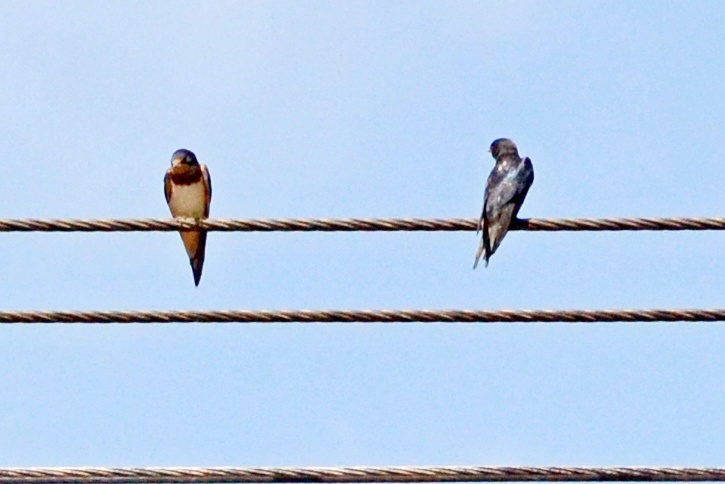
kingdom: Animalia
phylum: Chordata
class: Aves
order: Passeriformes
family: Hirundinidae
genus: Hirundo
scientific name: Hirundo rustica
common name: Barn swallow
